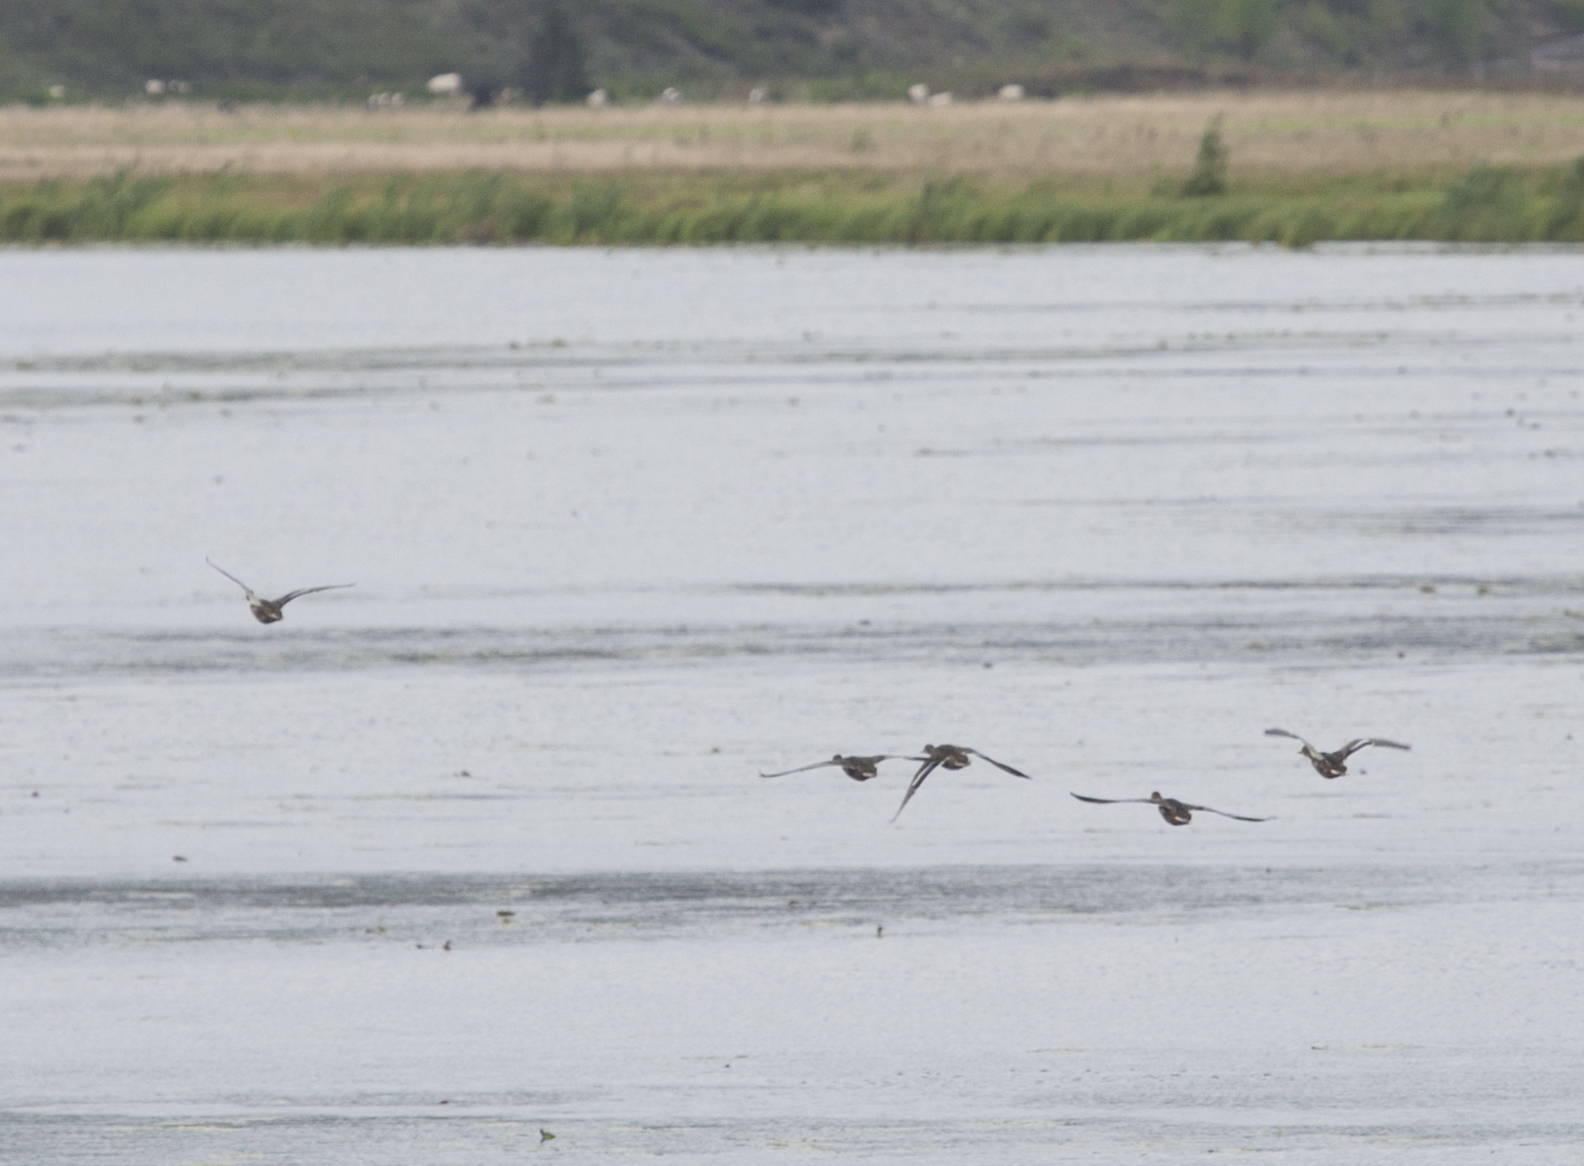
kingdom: Animalia
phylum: Chordata
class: Aves
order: Anseriformes
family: Anatidae
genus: Anas
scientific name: Anas platyrhynchos
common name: Mallard
